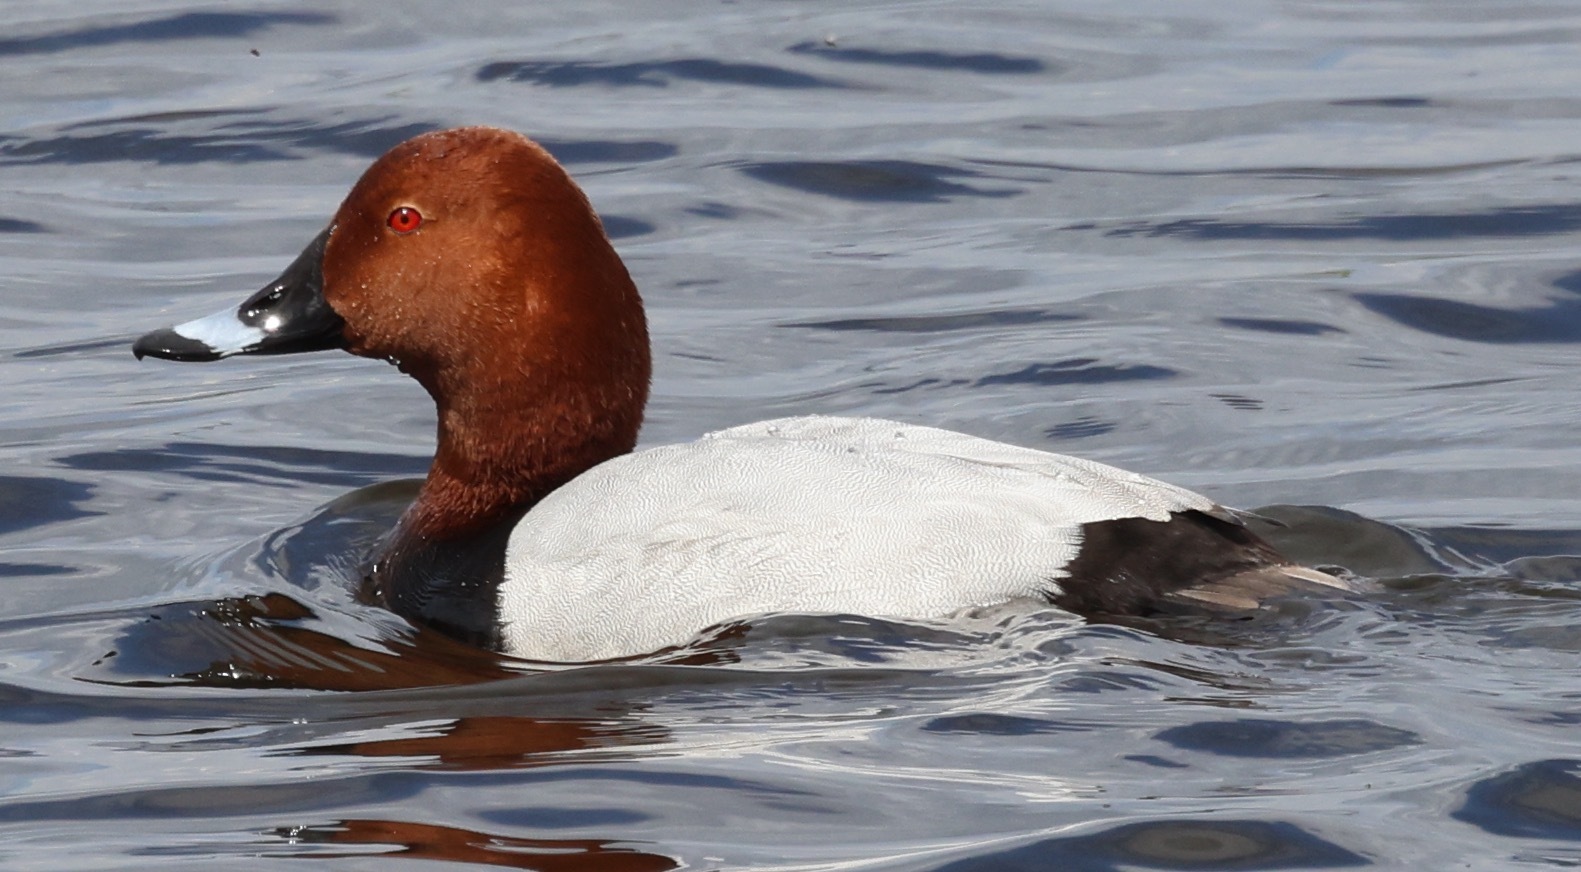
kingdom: Animalia
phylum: Chordata
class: Aves
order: Anseriformes
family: Anatidae
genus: Aythya
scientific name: Aythya ferina
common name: Common pochard
